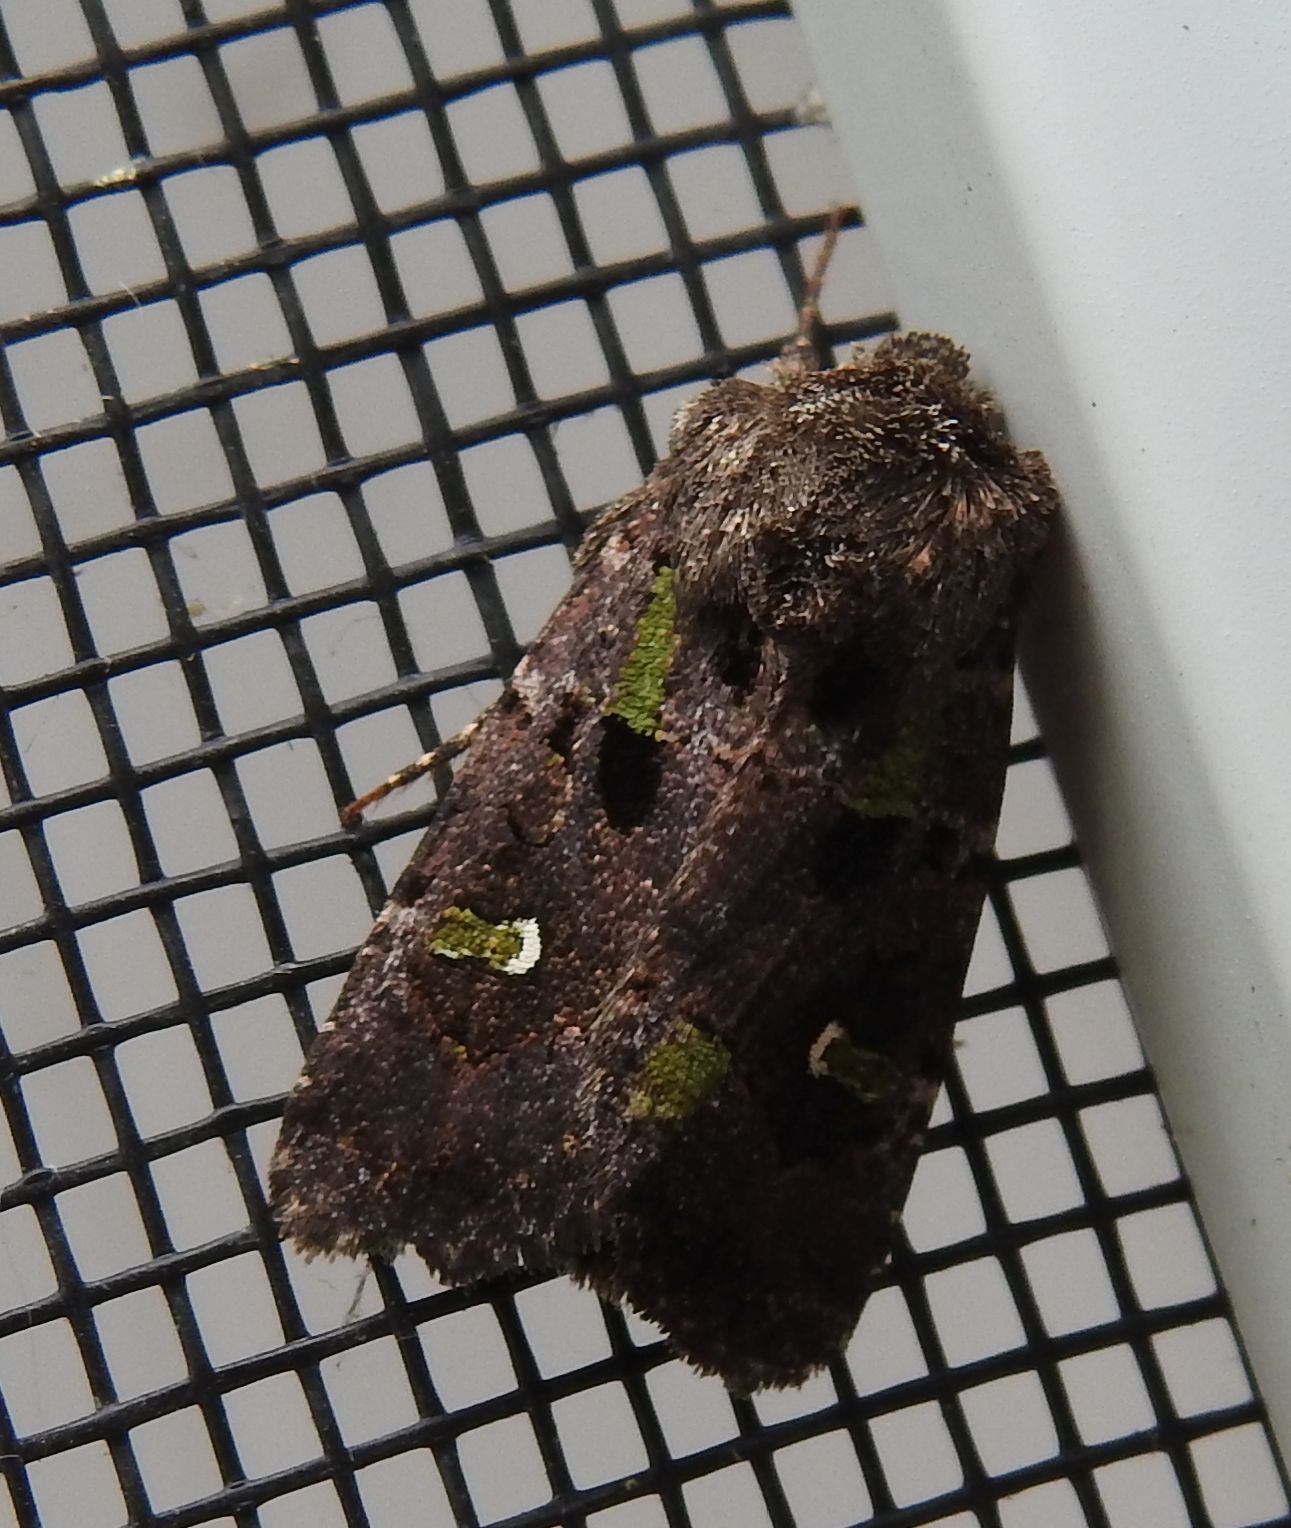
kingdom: Animalia
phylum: Arthropoda
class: Insecta
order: Lepidoptera
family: Noctuidae
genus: Lacinipolia
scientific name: Lacinipolia renigera
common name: Kidney-spotted minor
